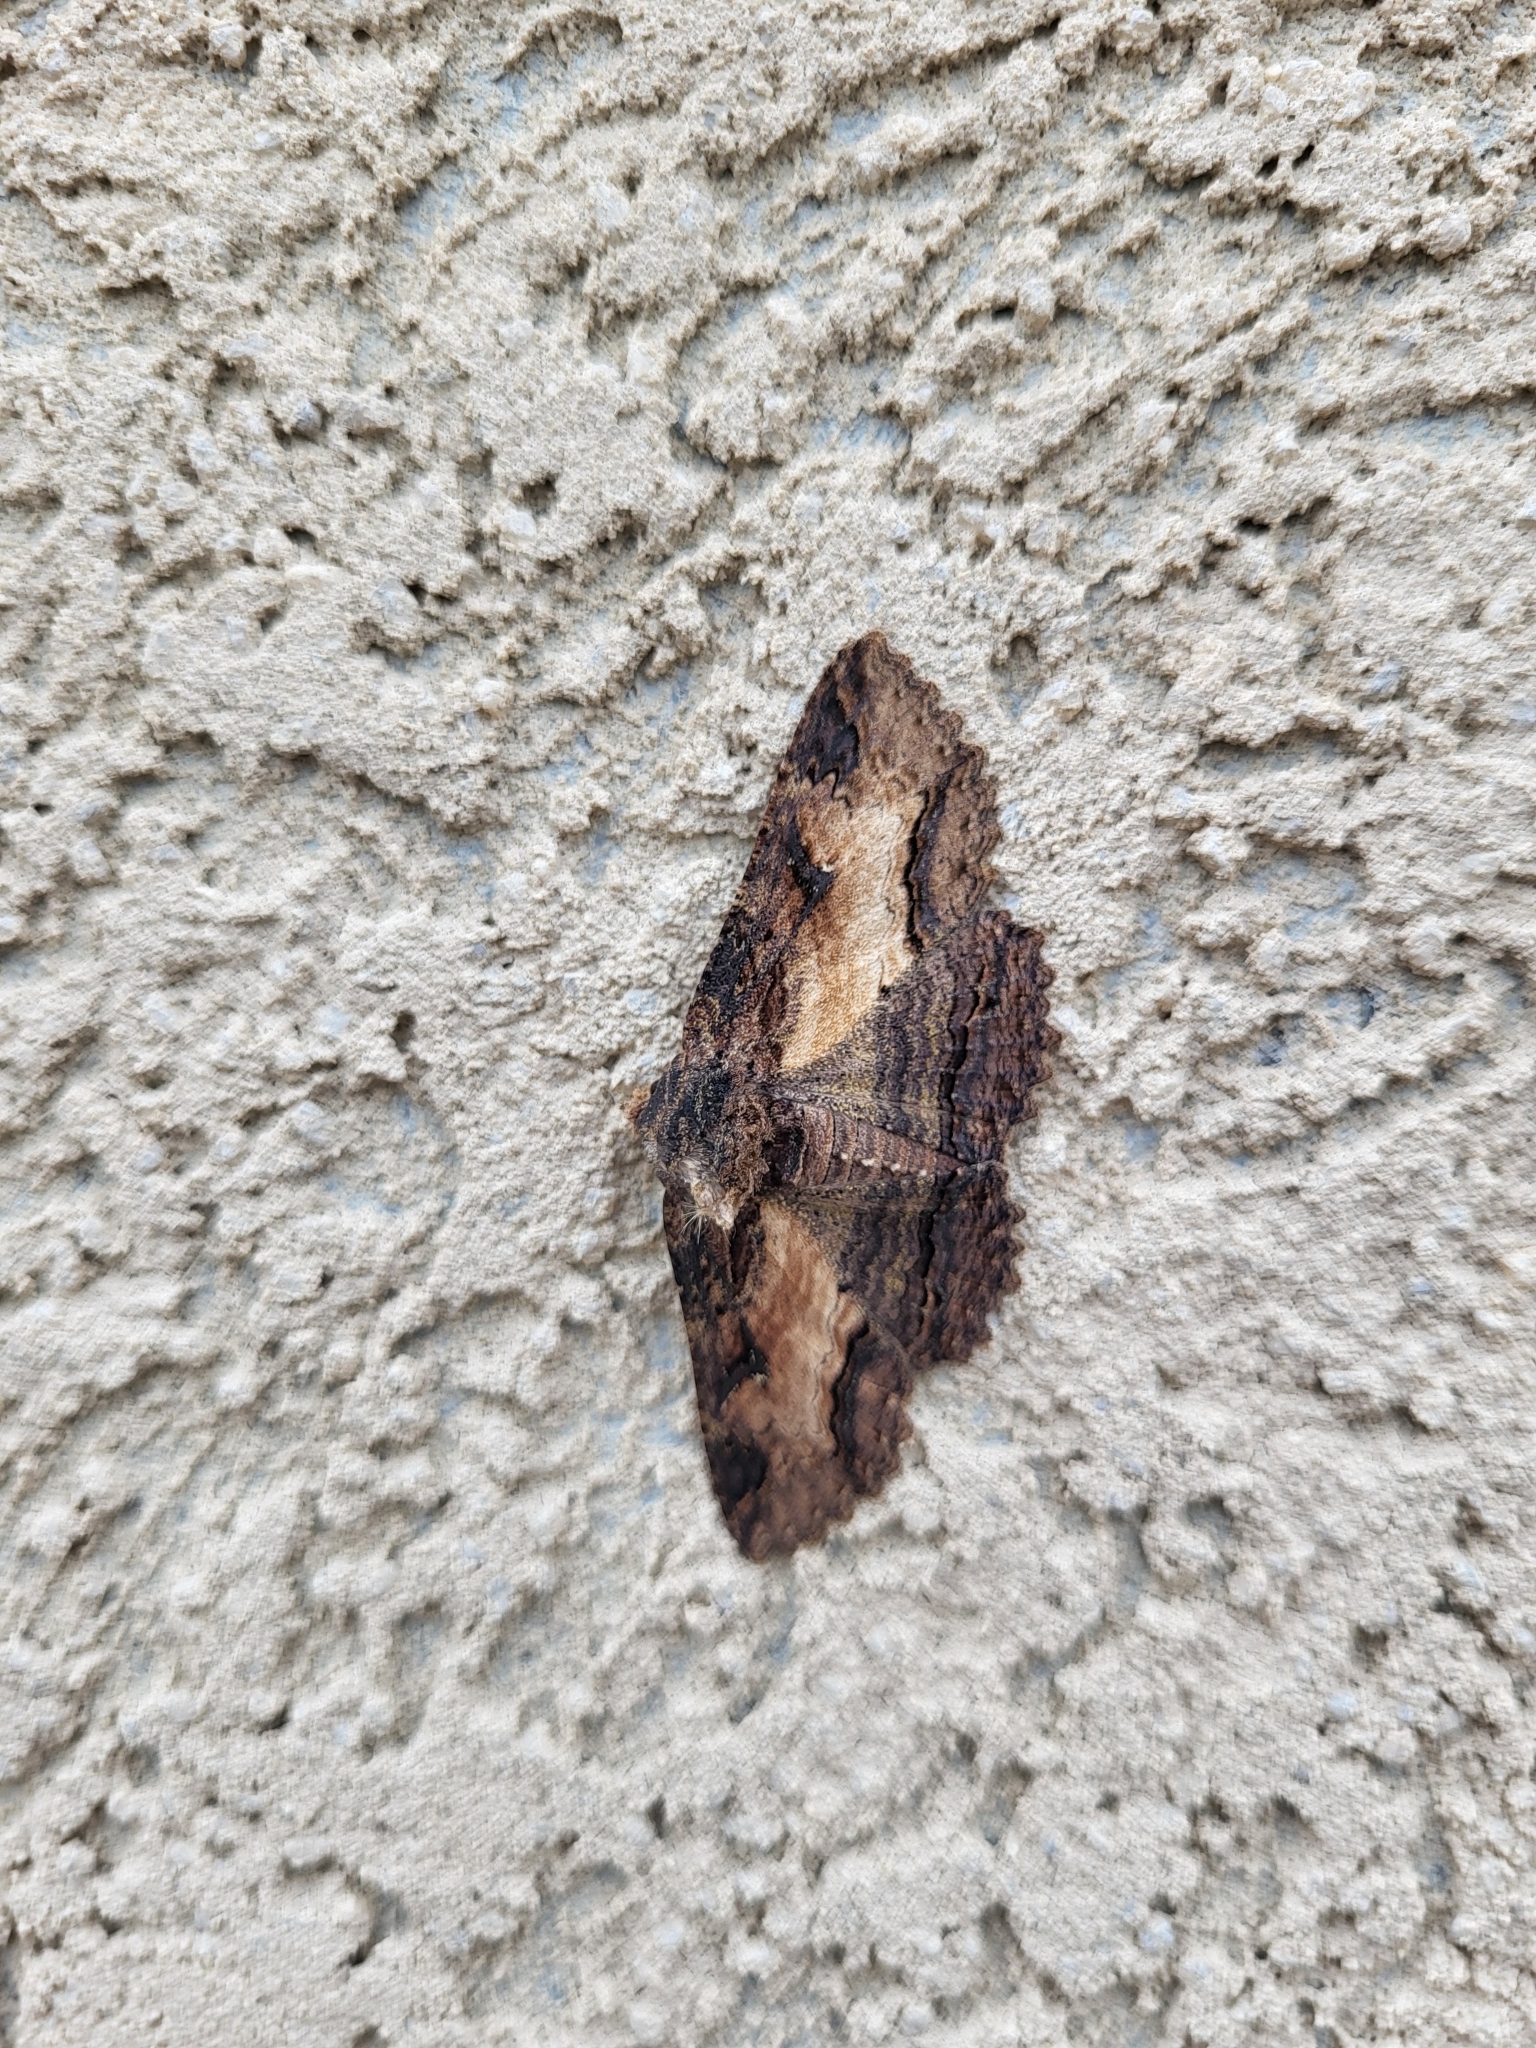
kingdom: Animalia
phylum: Arthropoda
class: Insecta
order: Lepidoptera
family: Erebidae
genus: Zale
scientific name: Zale lunata
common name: Lunate zale moth
